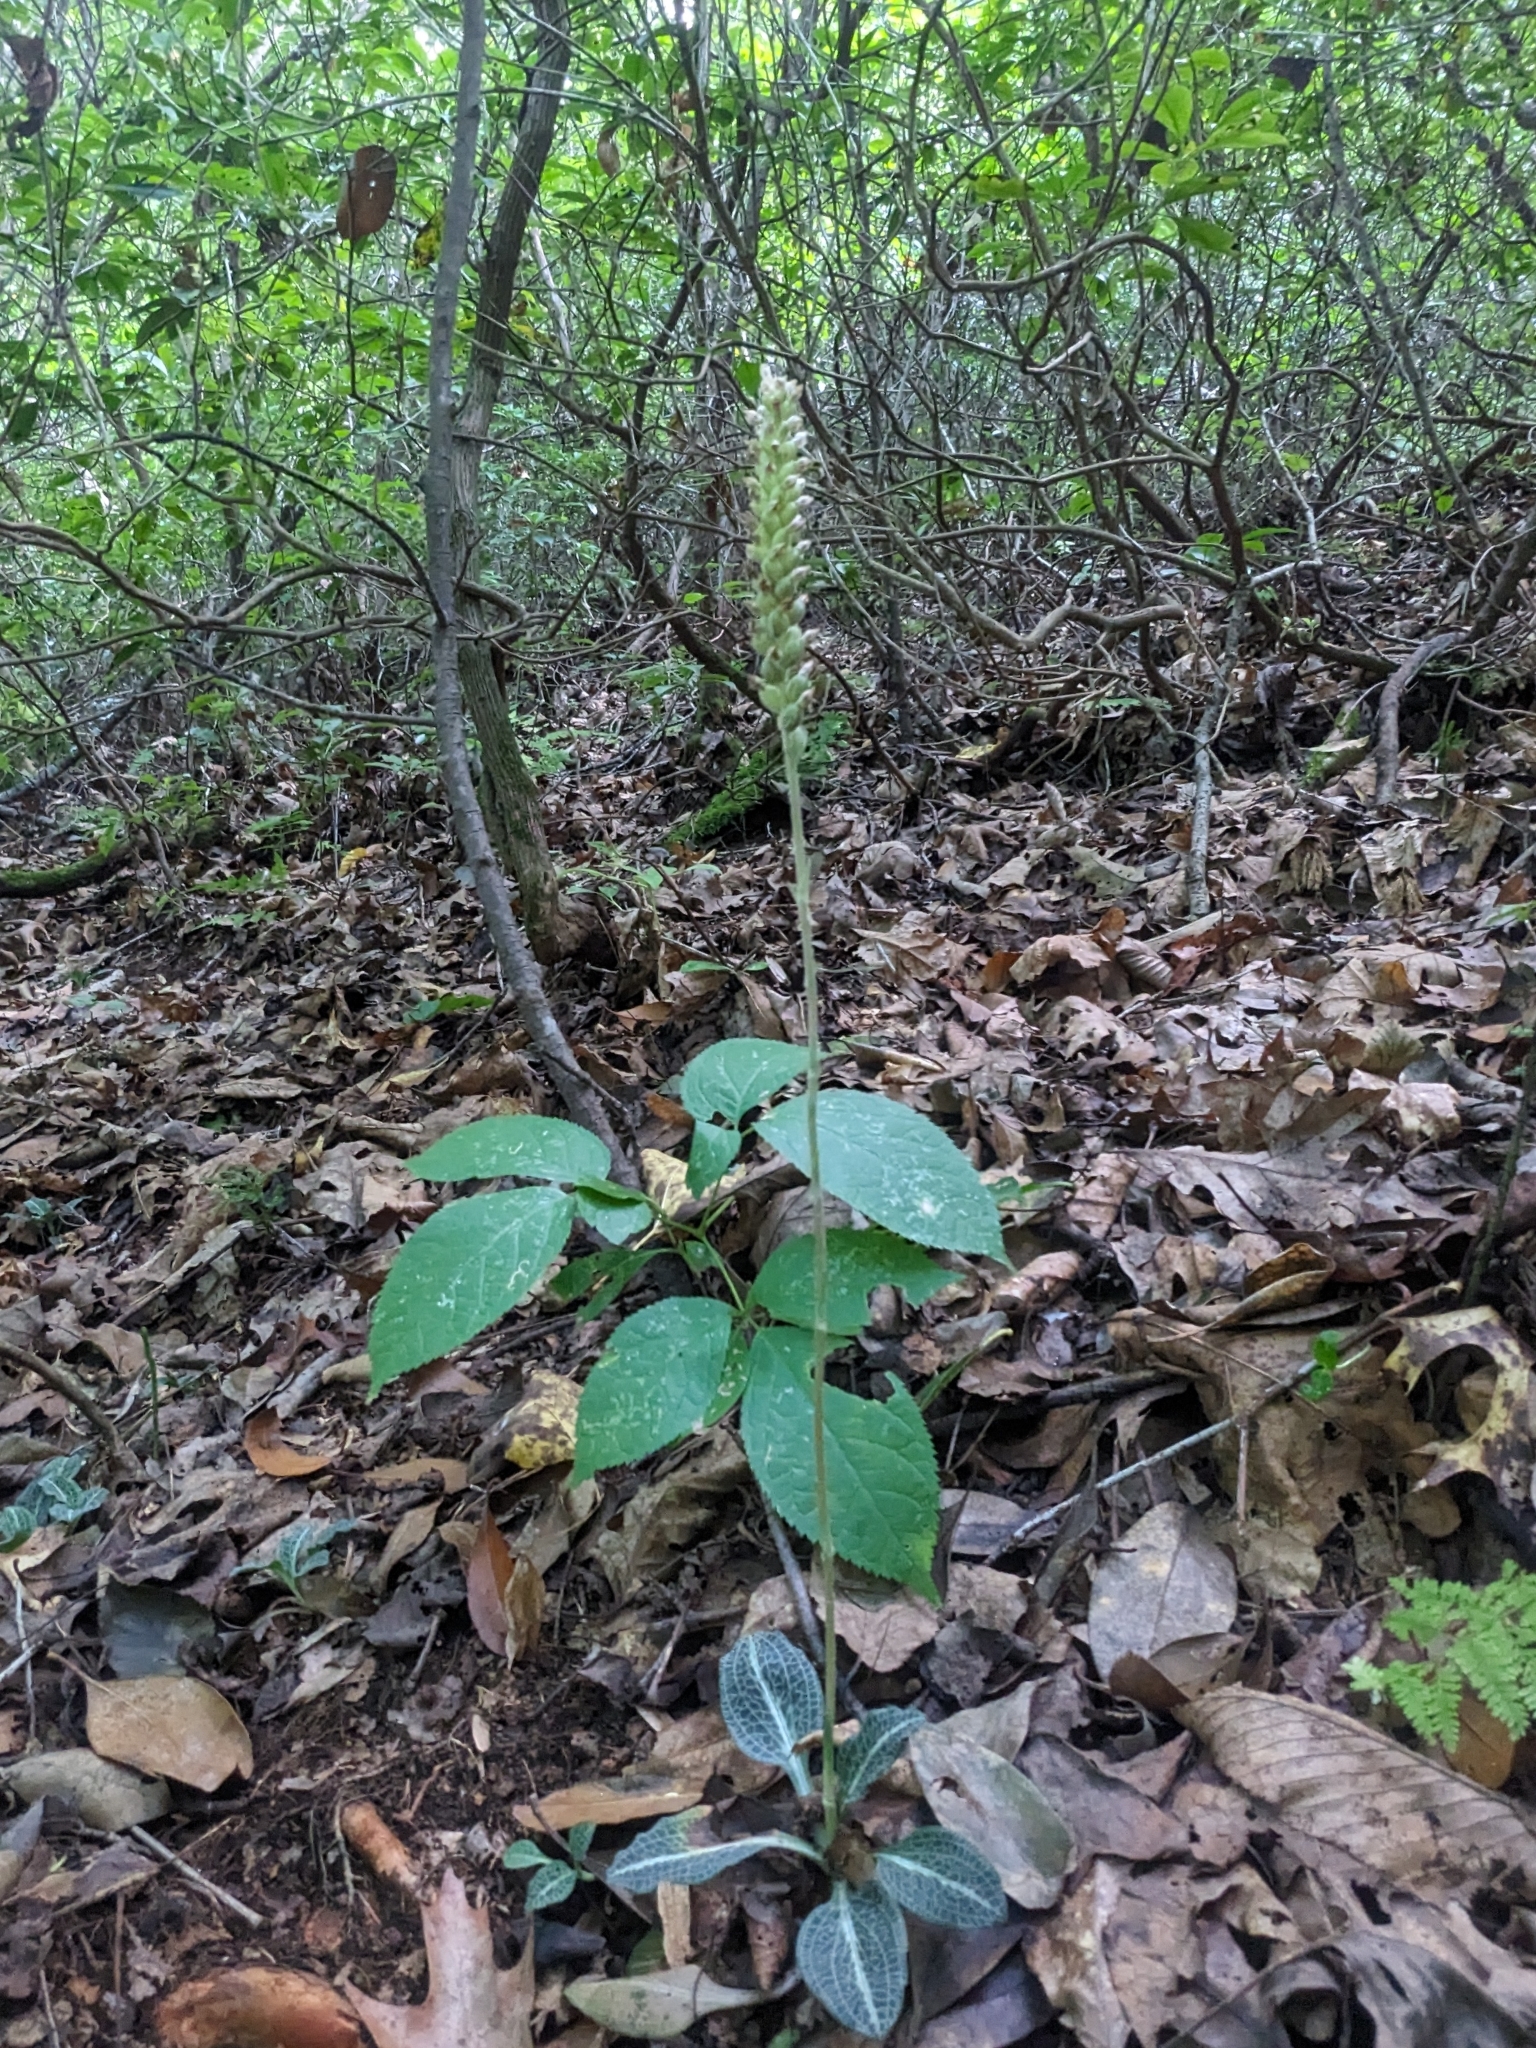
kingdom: Plantae
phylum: Tracheophyta
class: Liliopsida
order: Asparagales
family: Orchidaceae
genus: Goodyera
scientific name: Goodyera pubescens
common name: Downy rattlesnake-plantain
